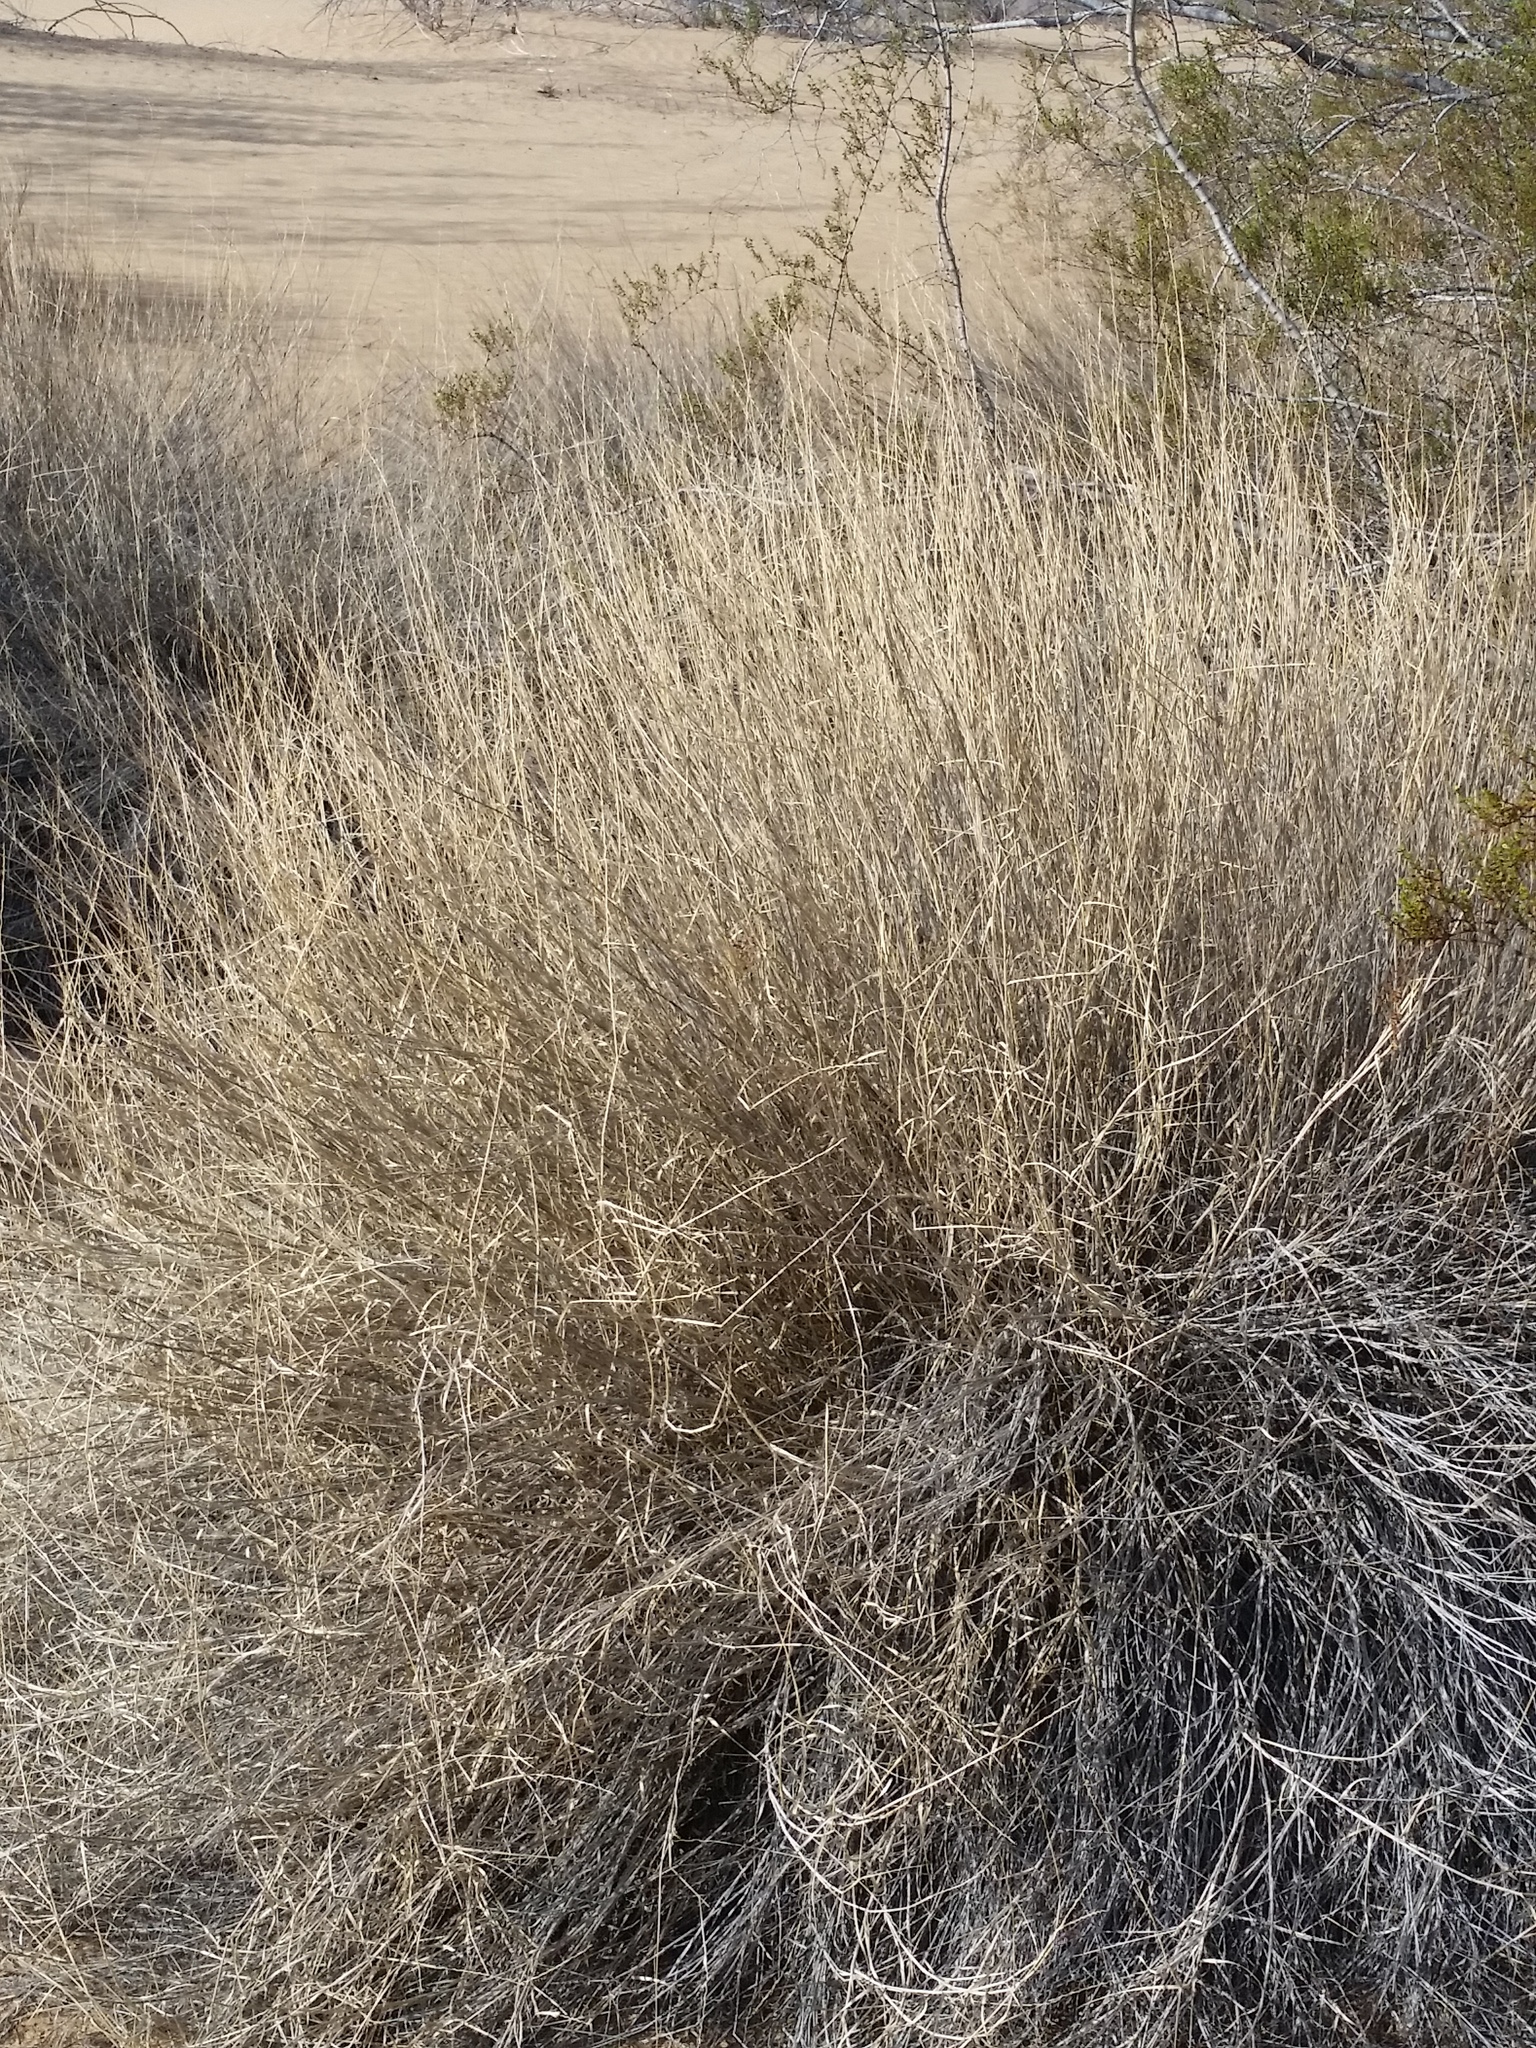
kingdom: Plantae
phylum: Tracheophyta
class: Liliopsida
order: Poales
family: Poaceae
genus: Hilaria
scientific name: Hilaria rigida
